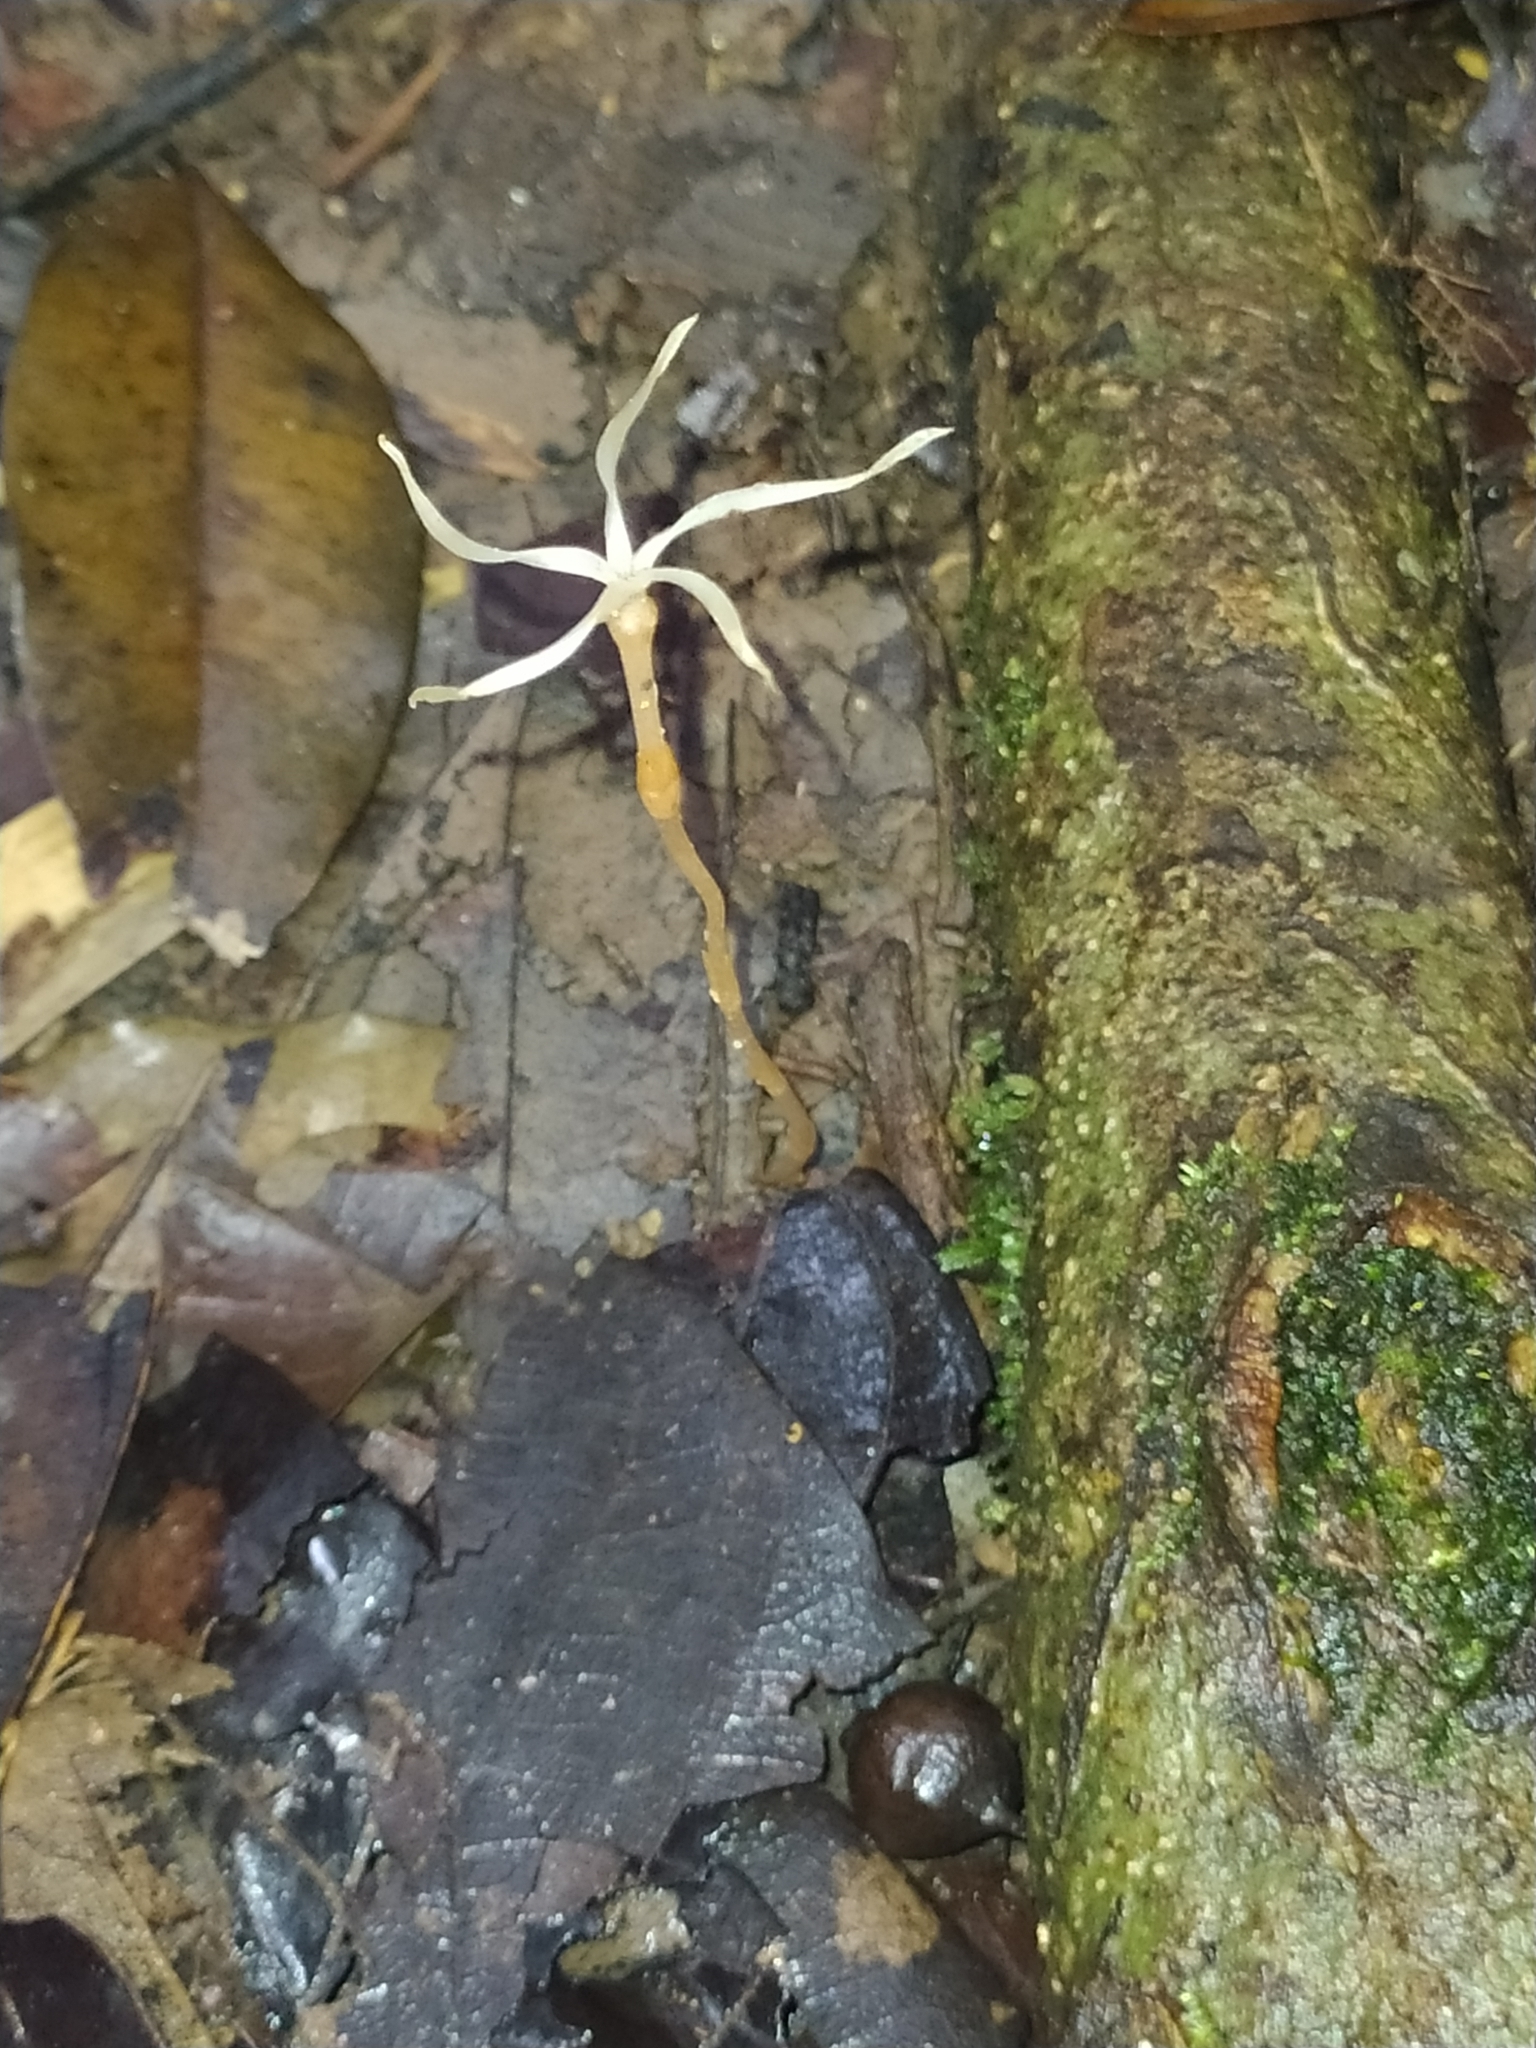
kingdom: Plantae
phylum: Tracheophyta
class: Magnoliopsida
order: Gentianales
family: Gentianaceae
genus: Voyria
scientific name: Voyria tenuiflora
